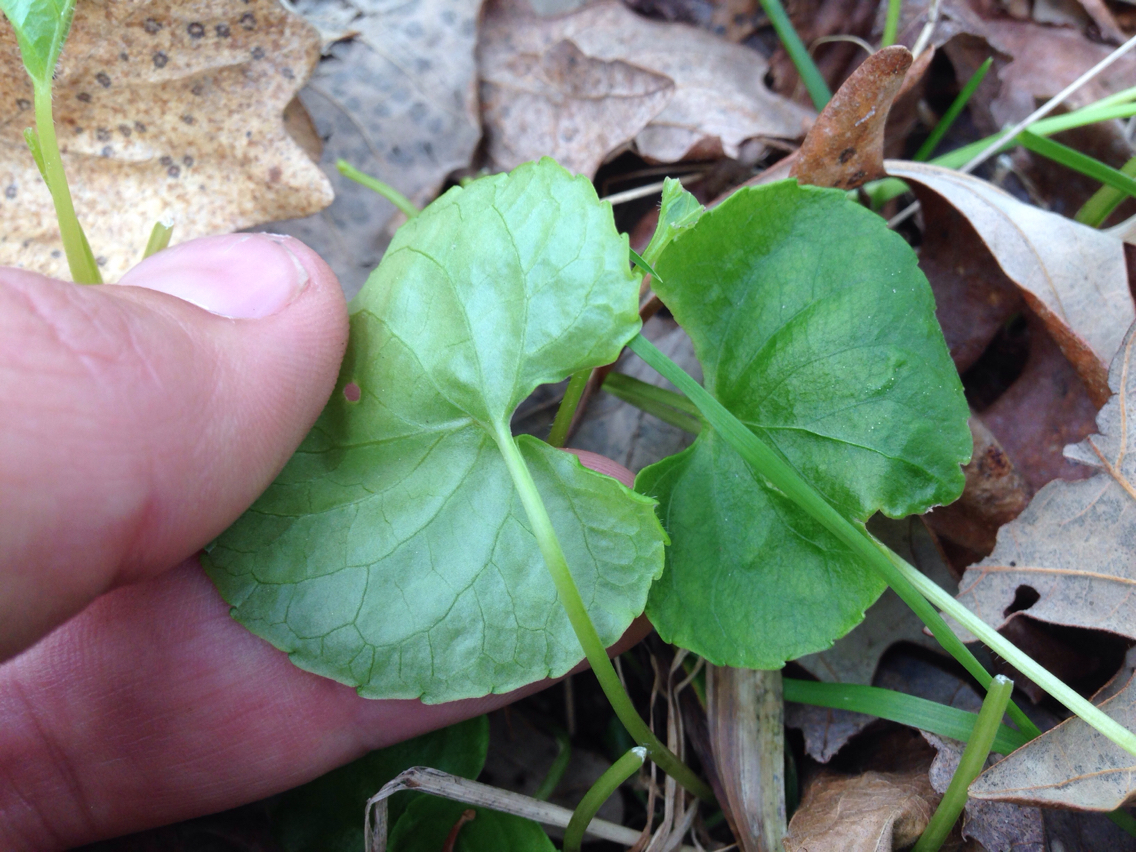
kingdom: Plantae
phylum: Tracheophyta
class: Magnoliopsida
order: Malpighiales
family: Violaceae
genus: Viola
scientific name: Viola minuscula
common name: Northern white violet
